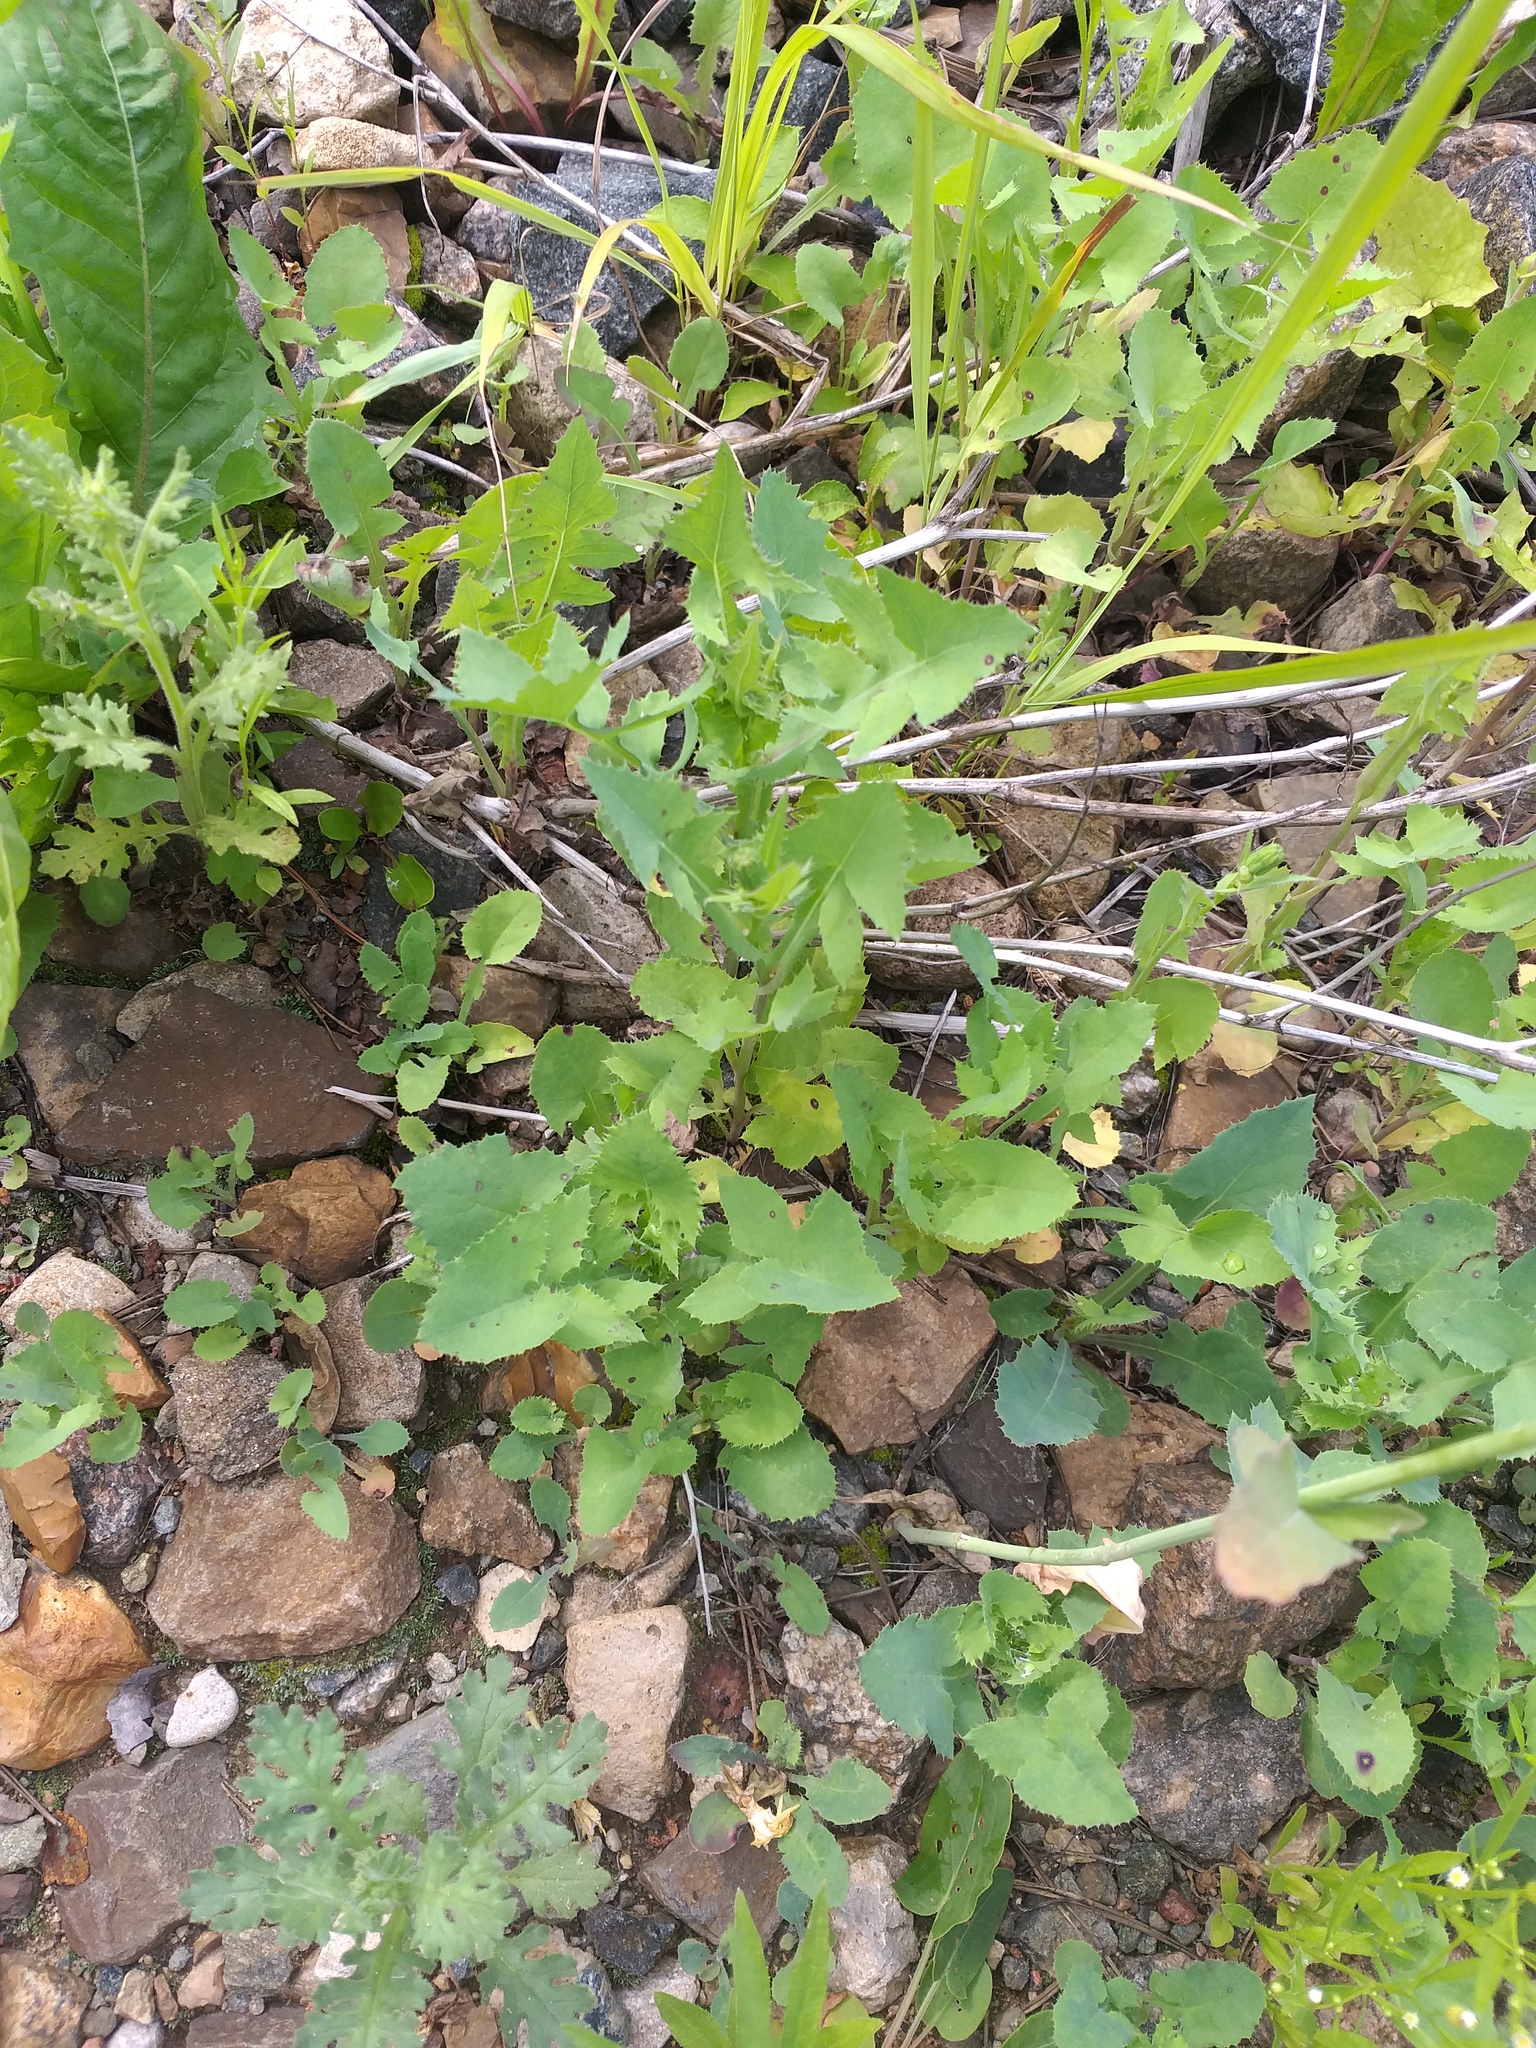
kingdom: Plantae
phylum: Tracheophyta
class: Magnoliopsida
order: Asterales
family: Asteraceae
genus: Sonchus
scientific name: Sonchus oleraceus
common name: Common sowthistle
